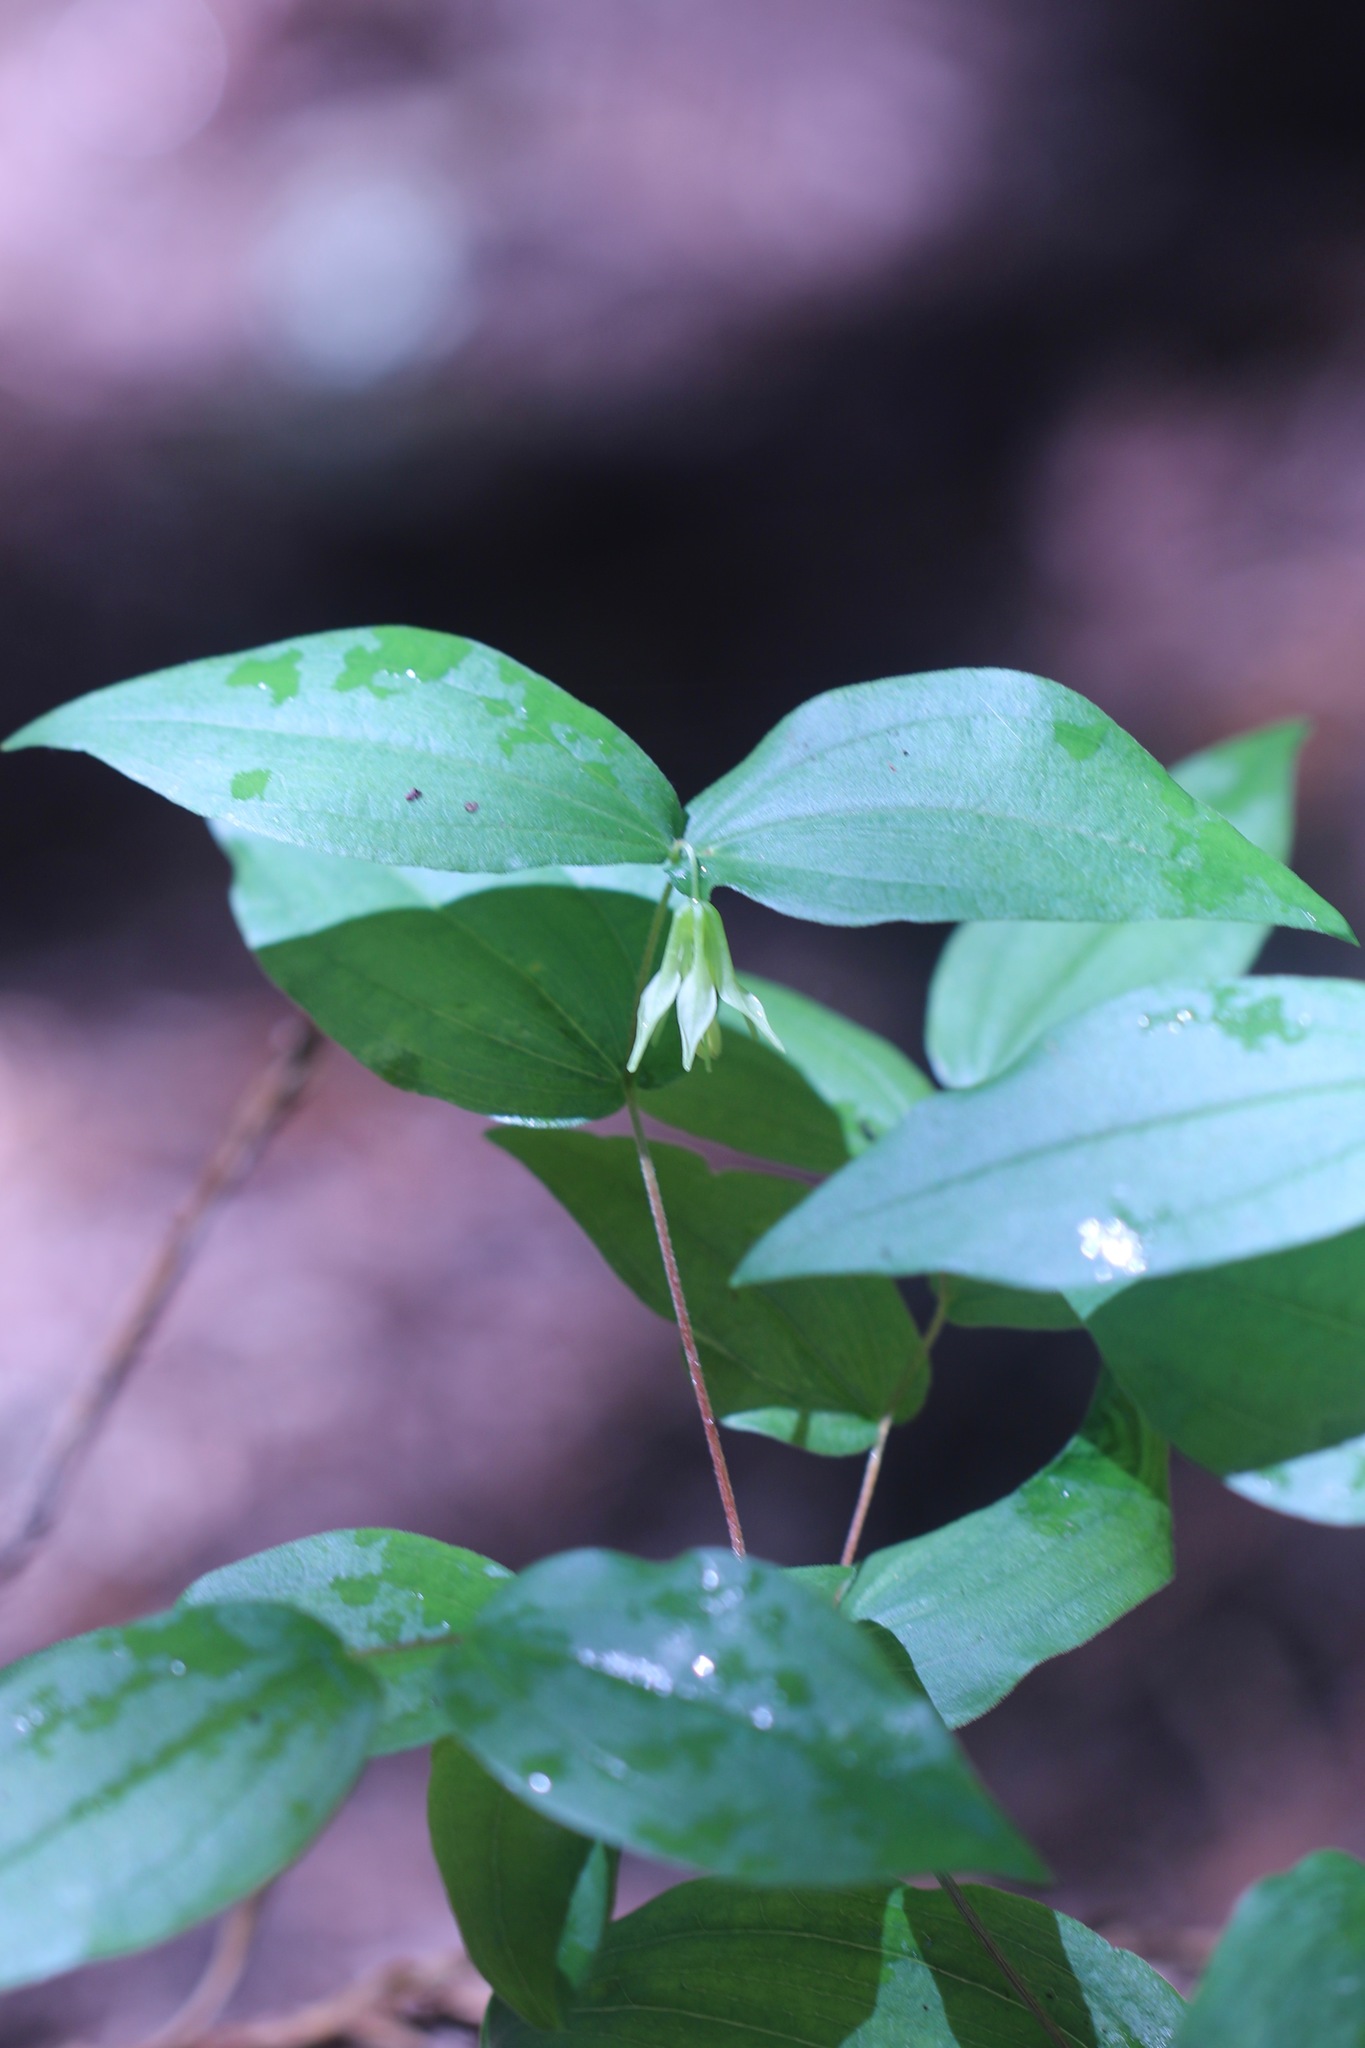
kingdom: Plantae
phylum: Tracheophyta
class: Liliopsida
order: Liliales
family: Liliaceae
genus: Prosartes
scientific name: Prosartes hookeri
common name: Fairy-bells
